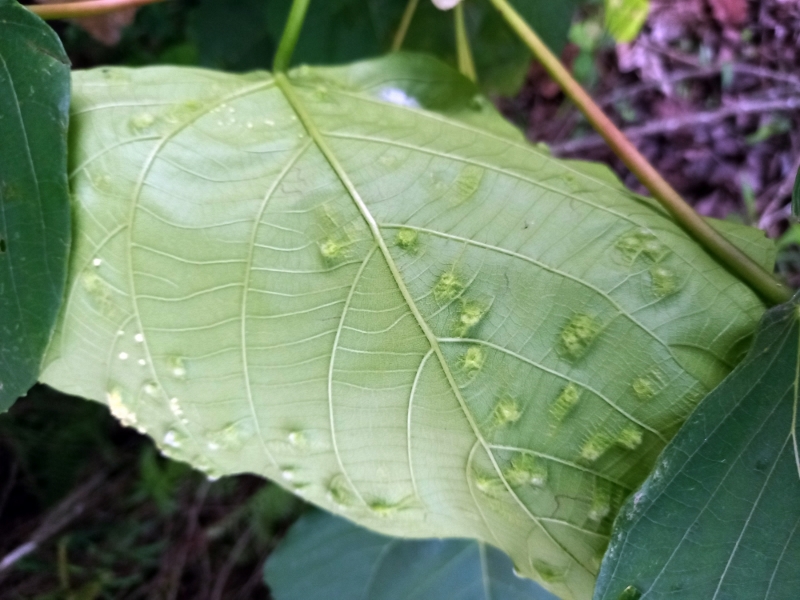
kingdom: Plantae
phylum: Tracheophyta
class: Magnoliopsida
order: Malpighiales
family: Euphorbiaceae
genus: Macaranga
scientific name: Macaranga capensis
